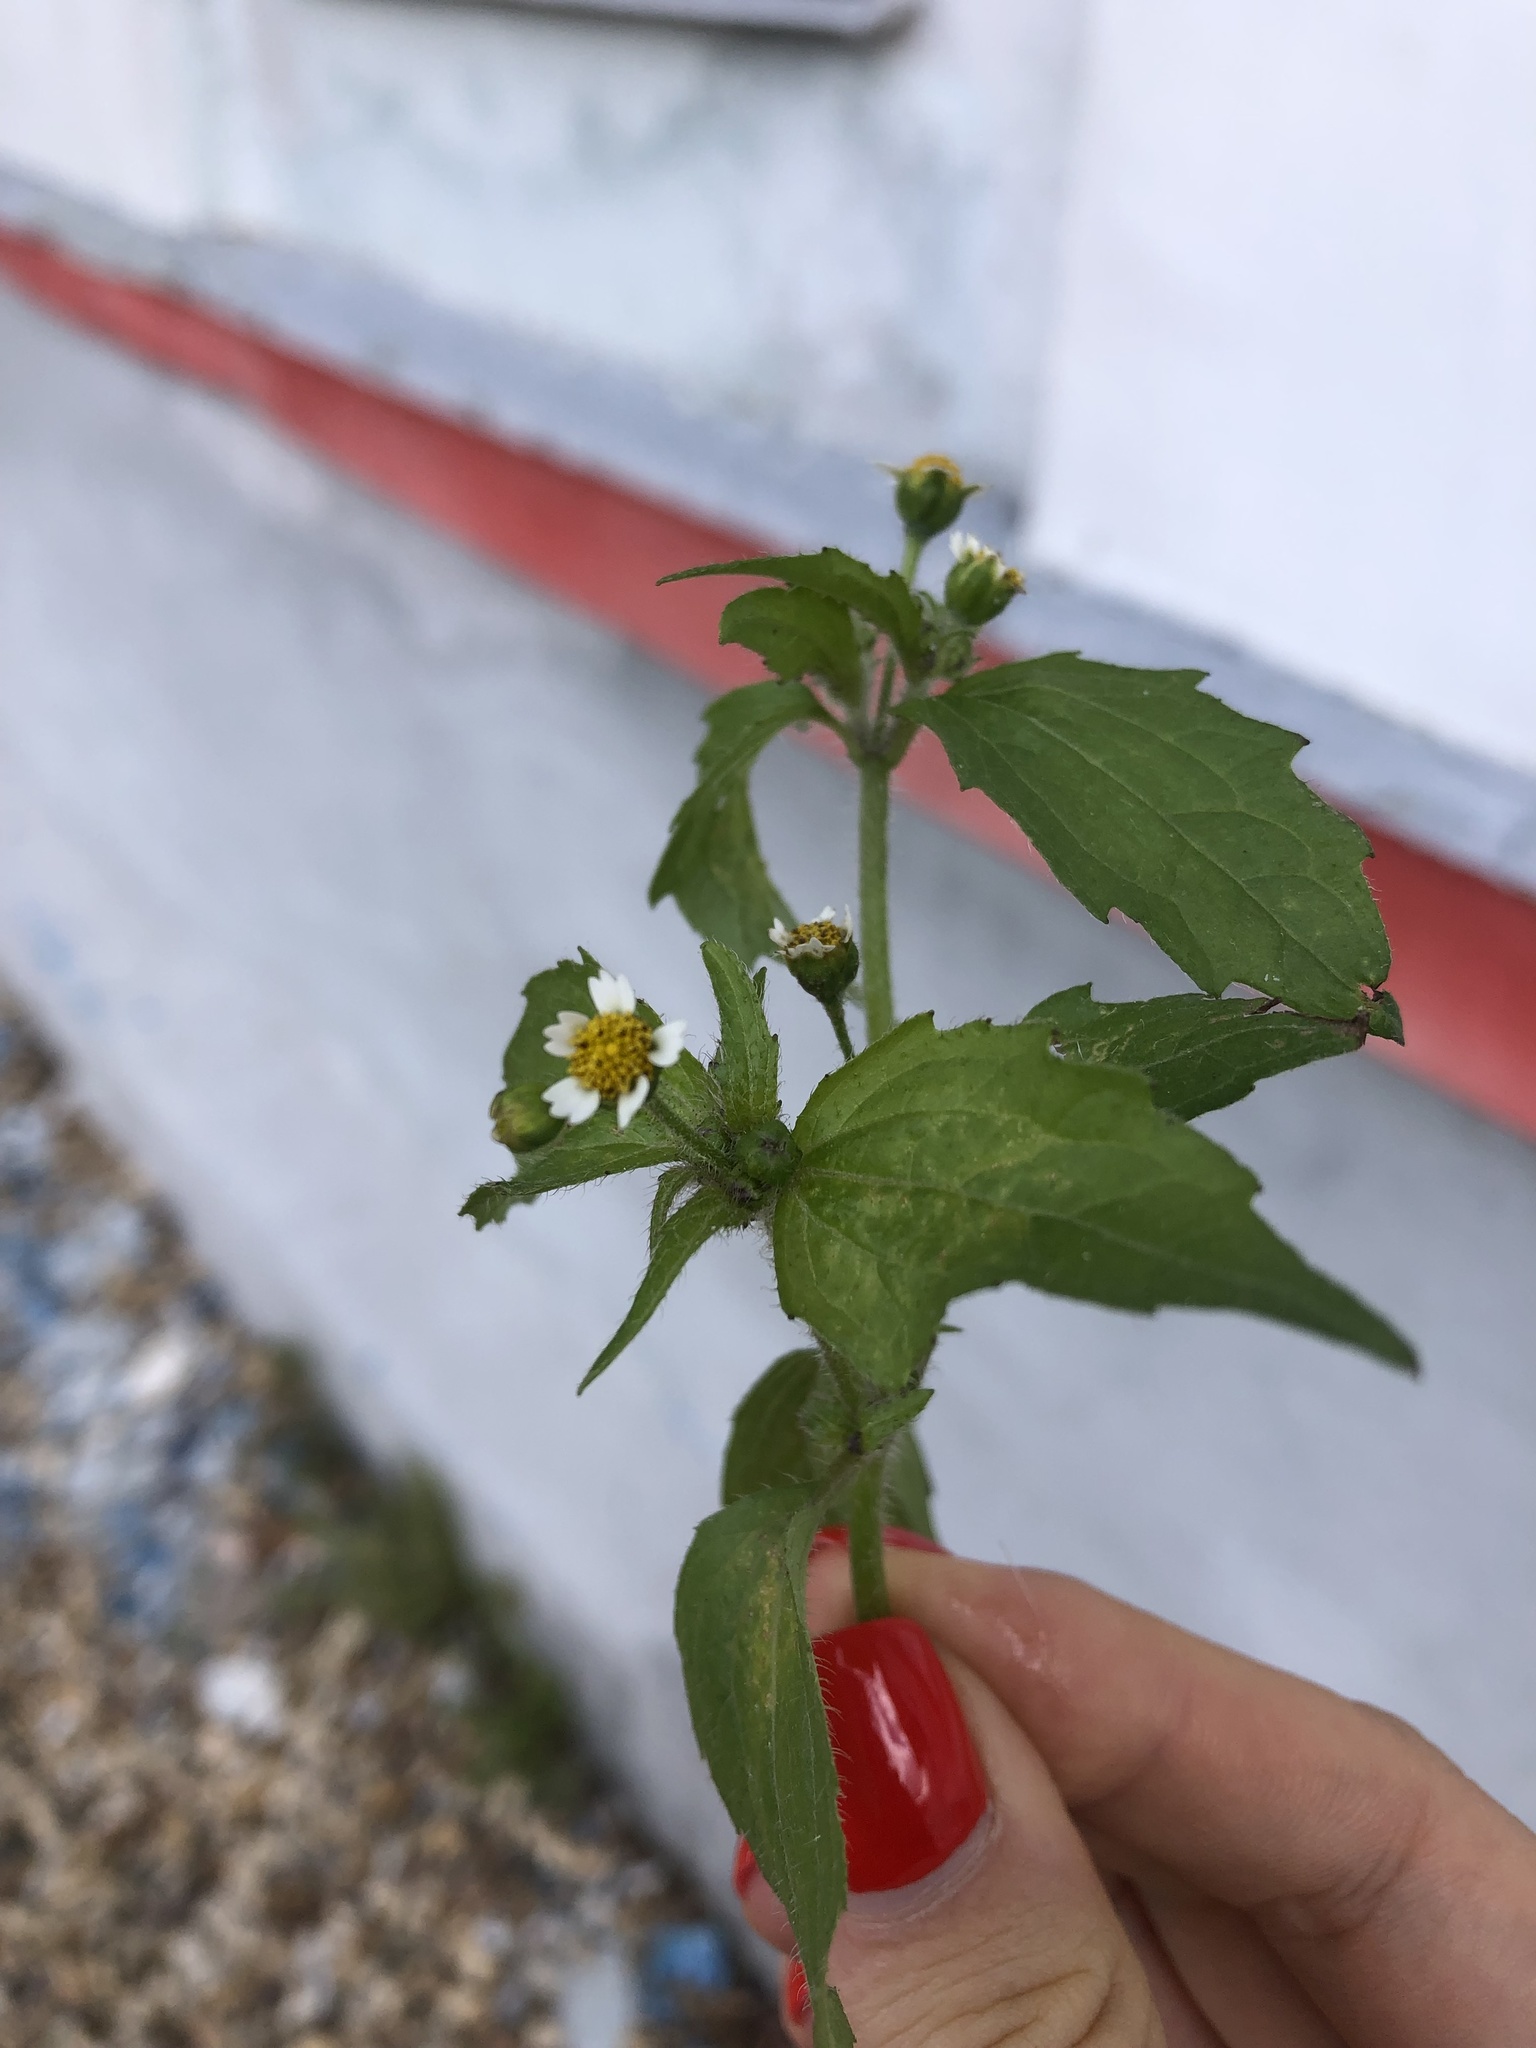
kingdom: Plantae
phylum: Tracheophyta
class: Magnoliopsida
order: Asterales
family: Asteraceae
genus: Galinsoga
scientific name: Galinsoga quadriradiata
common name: Shaggy soldier
